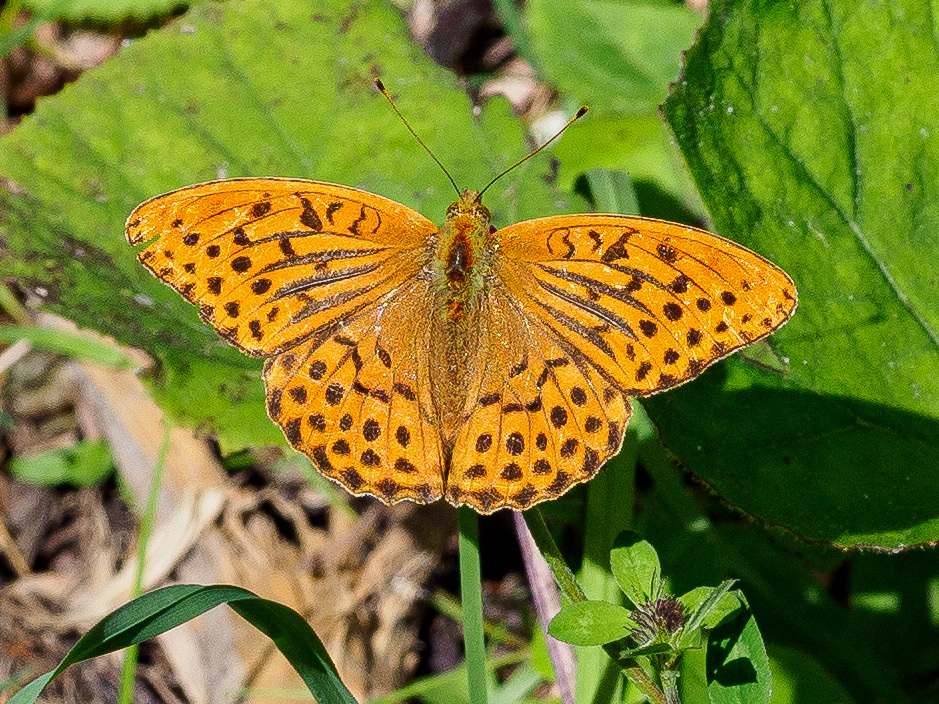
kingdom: Animalia
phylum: Arthropoda
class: Insecta
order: Lepidoptera
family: Nymphalidae
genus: Argynnis
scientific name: Argynnis paphia
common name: Silver-washed fritillary
